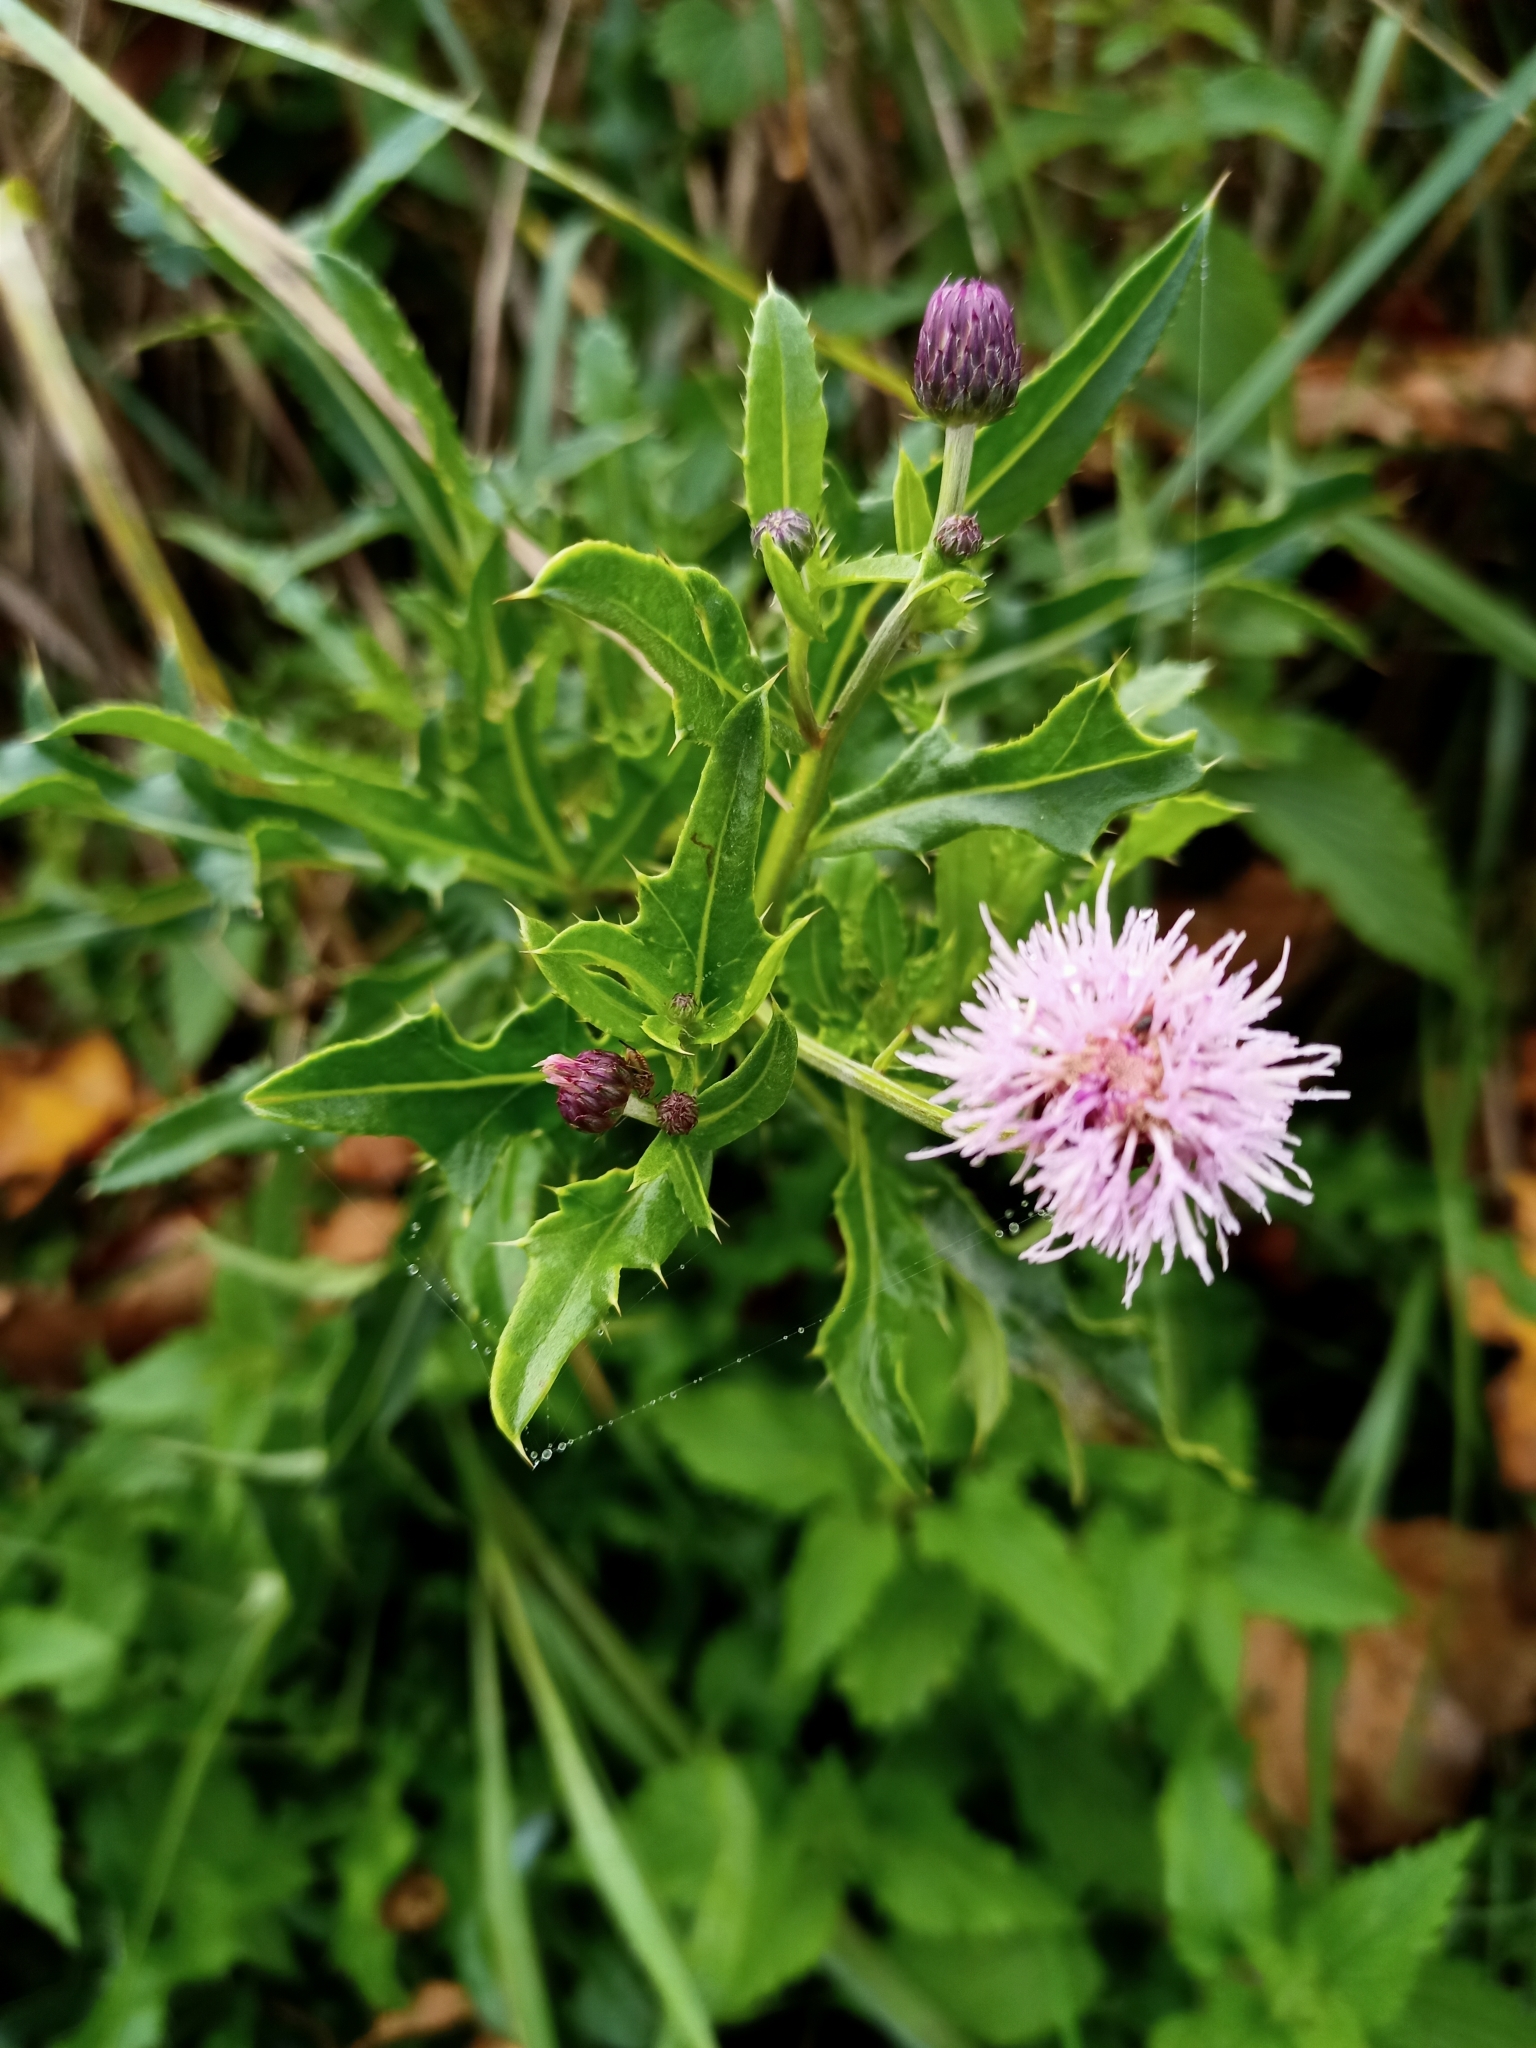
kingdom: Plantae
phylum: Tracheophyta
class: Magnoliopsida
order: Asterales
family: Asteraceae
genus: Cirsium
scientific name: Cirsium arvense
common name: Creeping thistle
